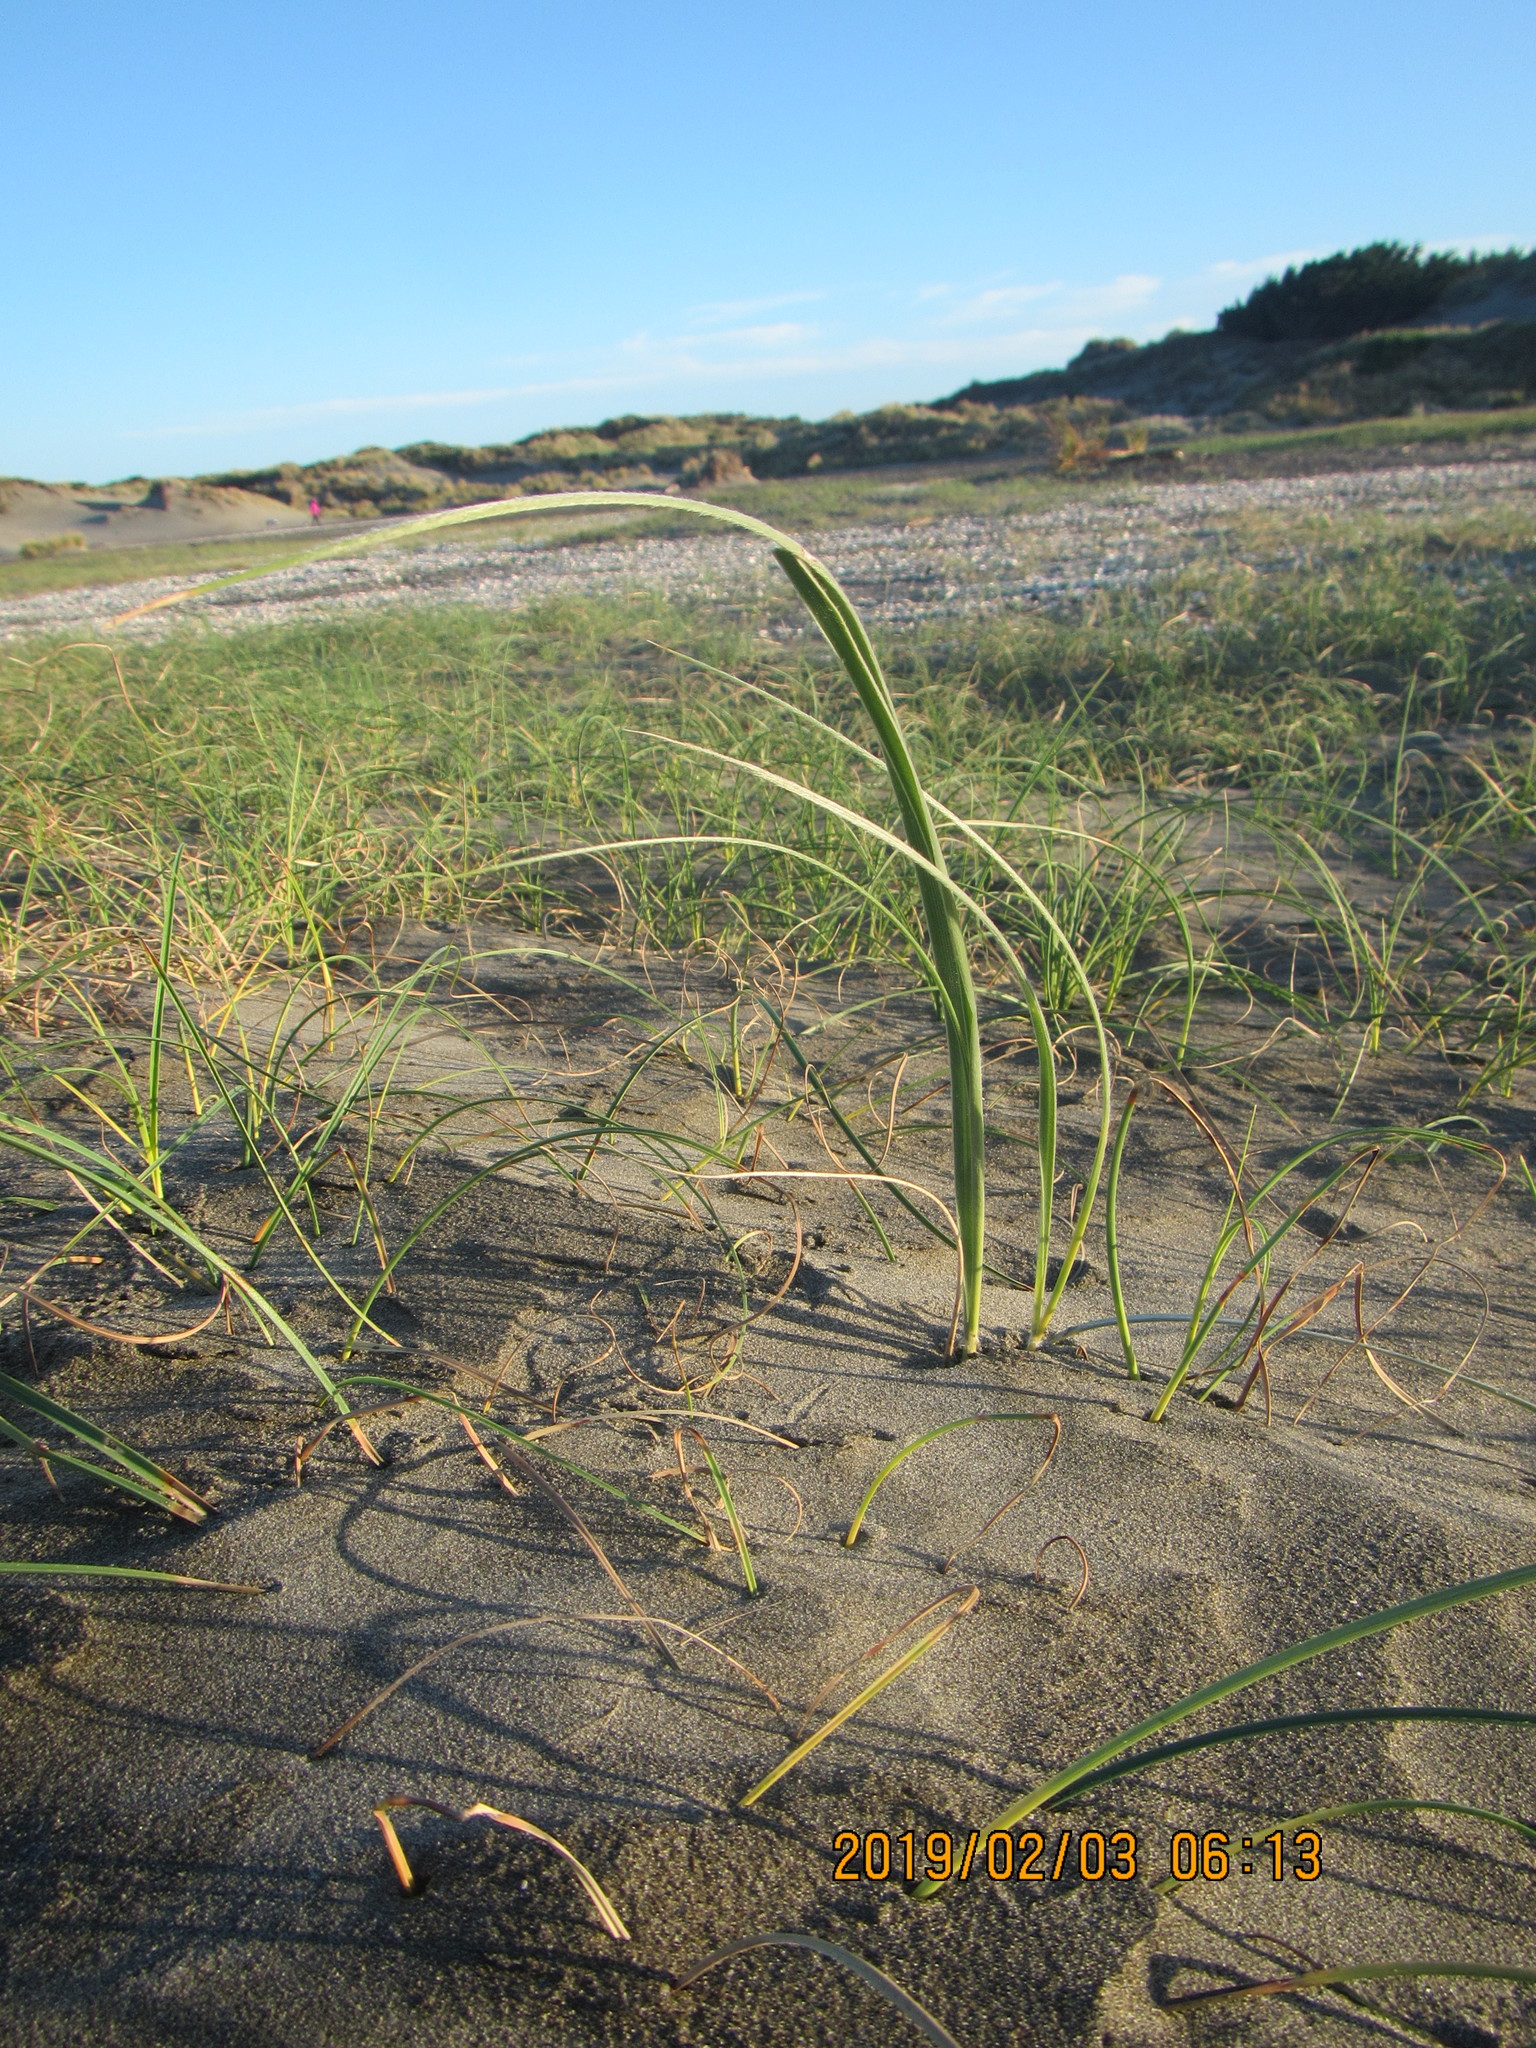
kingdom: Plantae
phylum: Tracheophyta
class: Liliopsida
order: Poales
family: Poaceae
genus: Spinifex
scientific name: Spinifex sericeus
